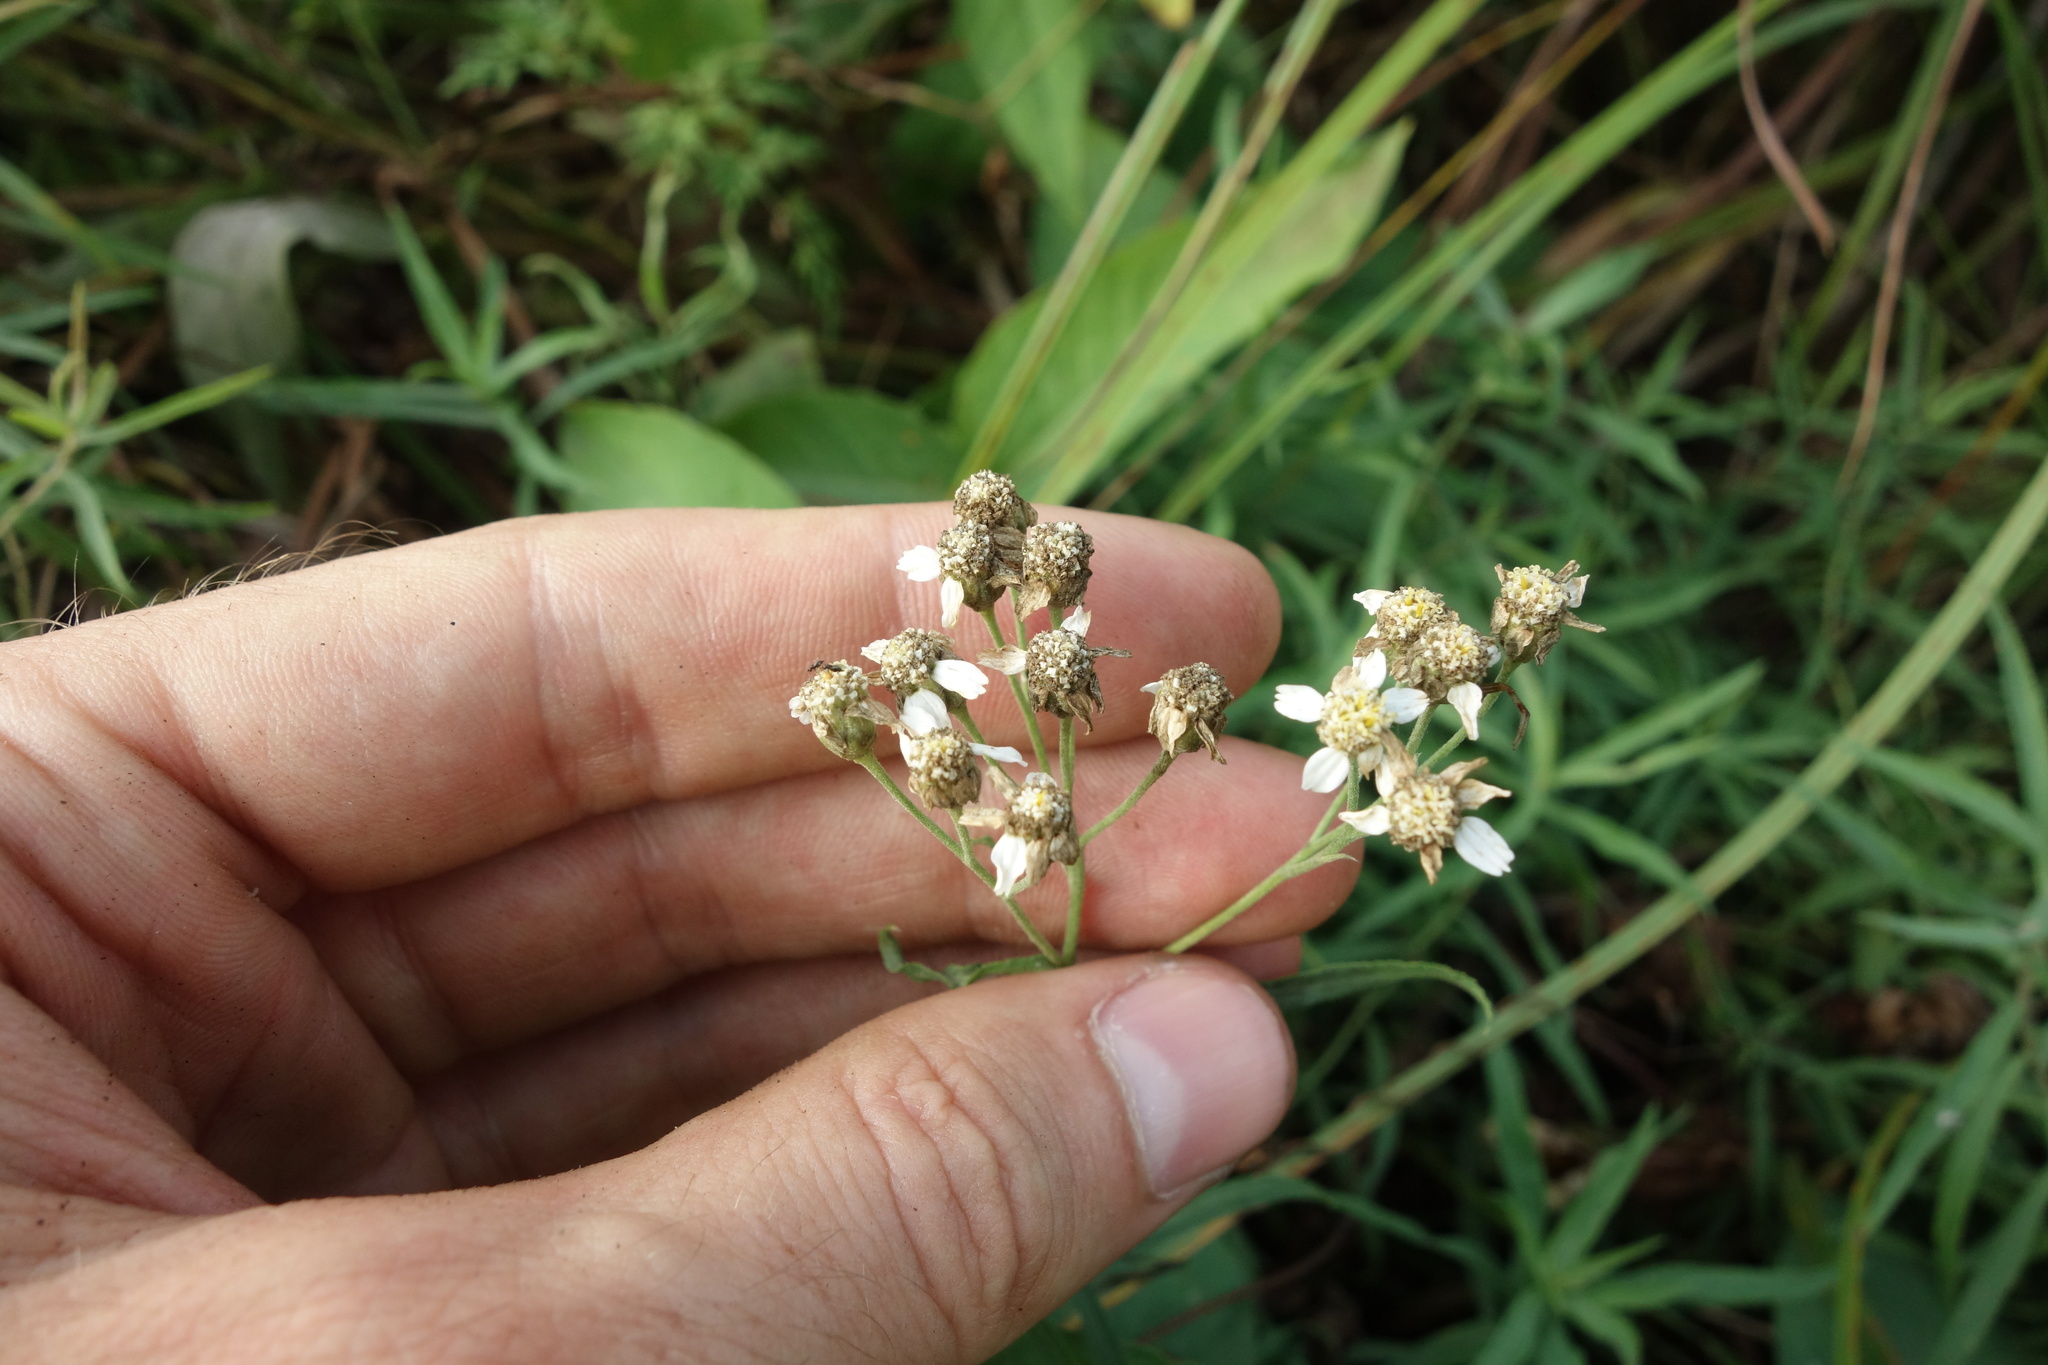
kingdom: Plantae
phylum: Tracheophyta
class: Magnoliopsida
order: Asterales
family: Asteraceae
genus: Achillea
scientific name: Achillea salicifolia
